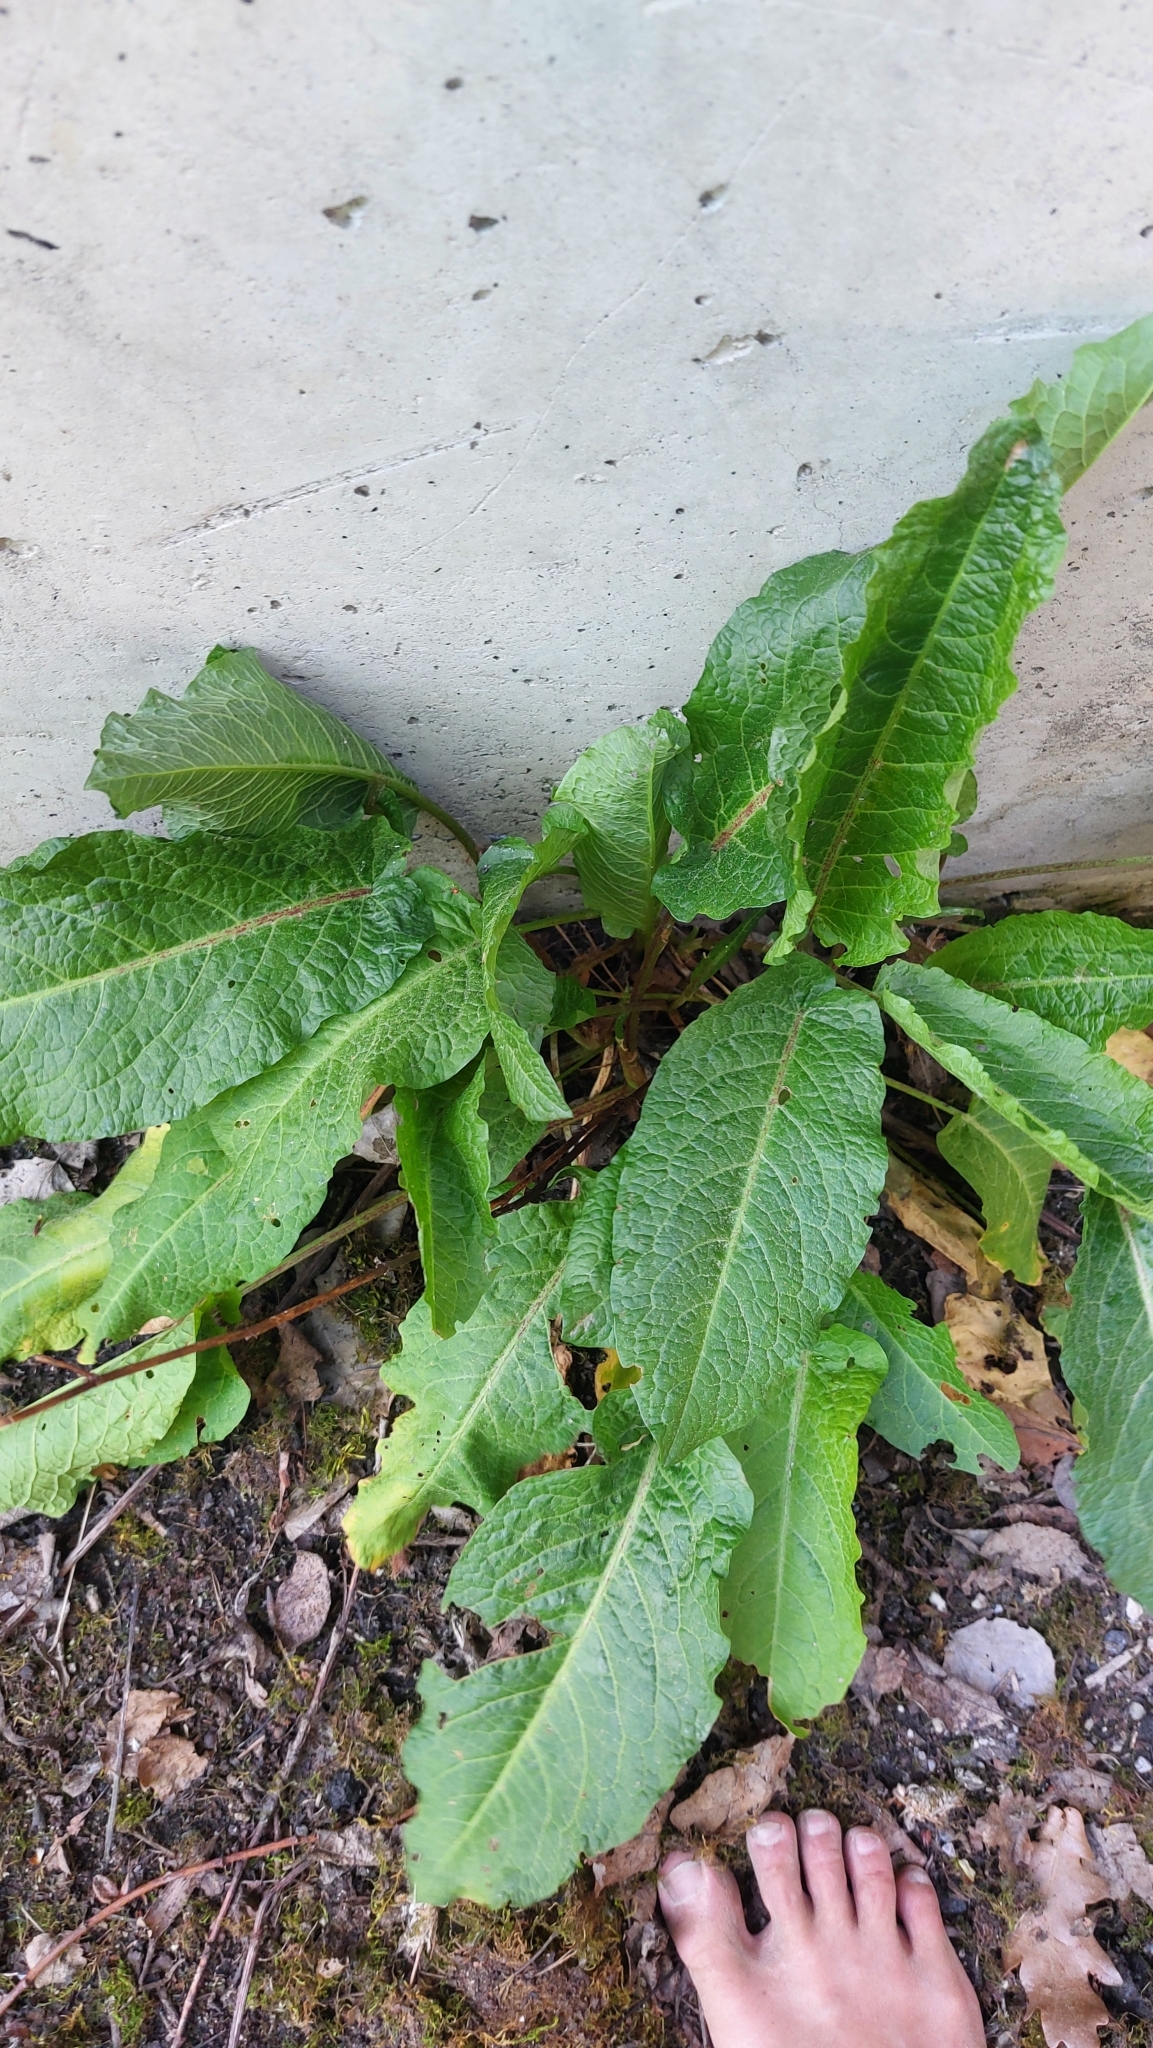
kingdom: Plantae
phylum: Tracheophyta
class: Magnoliopsida
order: Caryophyllales
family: Polygonaceae
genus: Rumex
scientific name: Rumex obtusifolius
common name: Bitter dock
